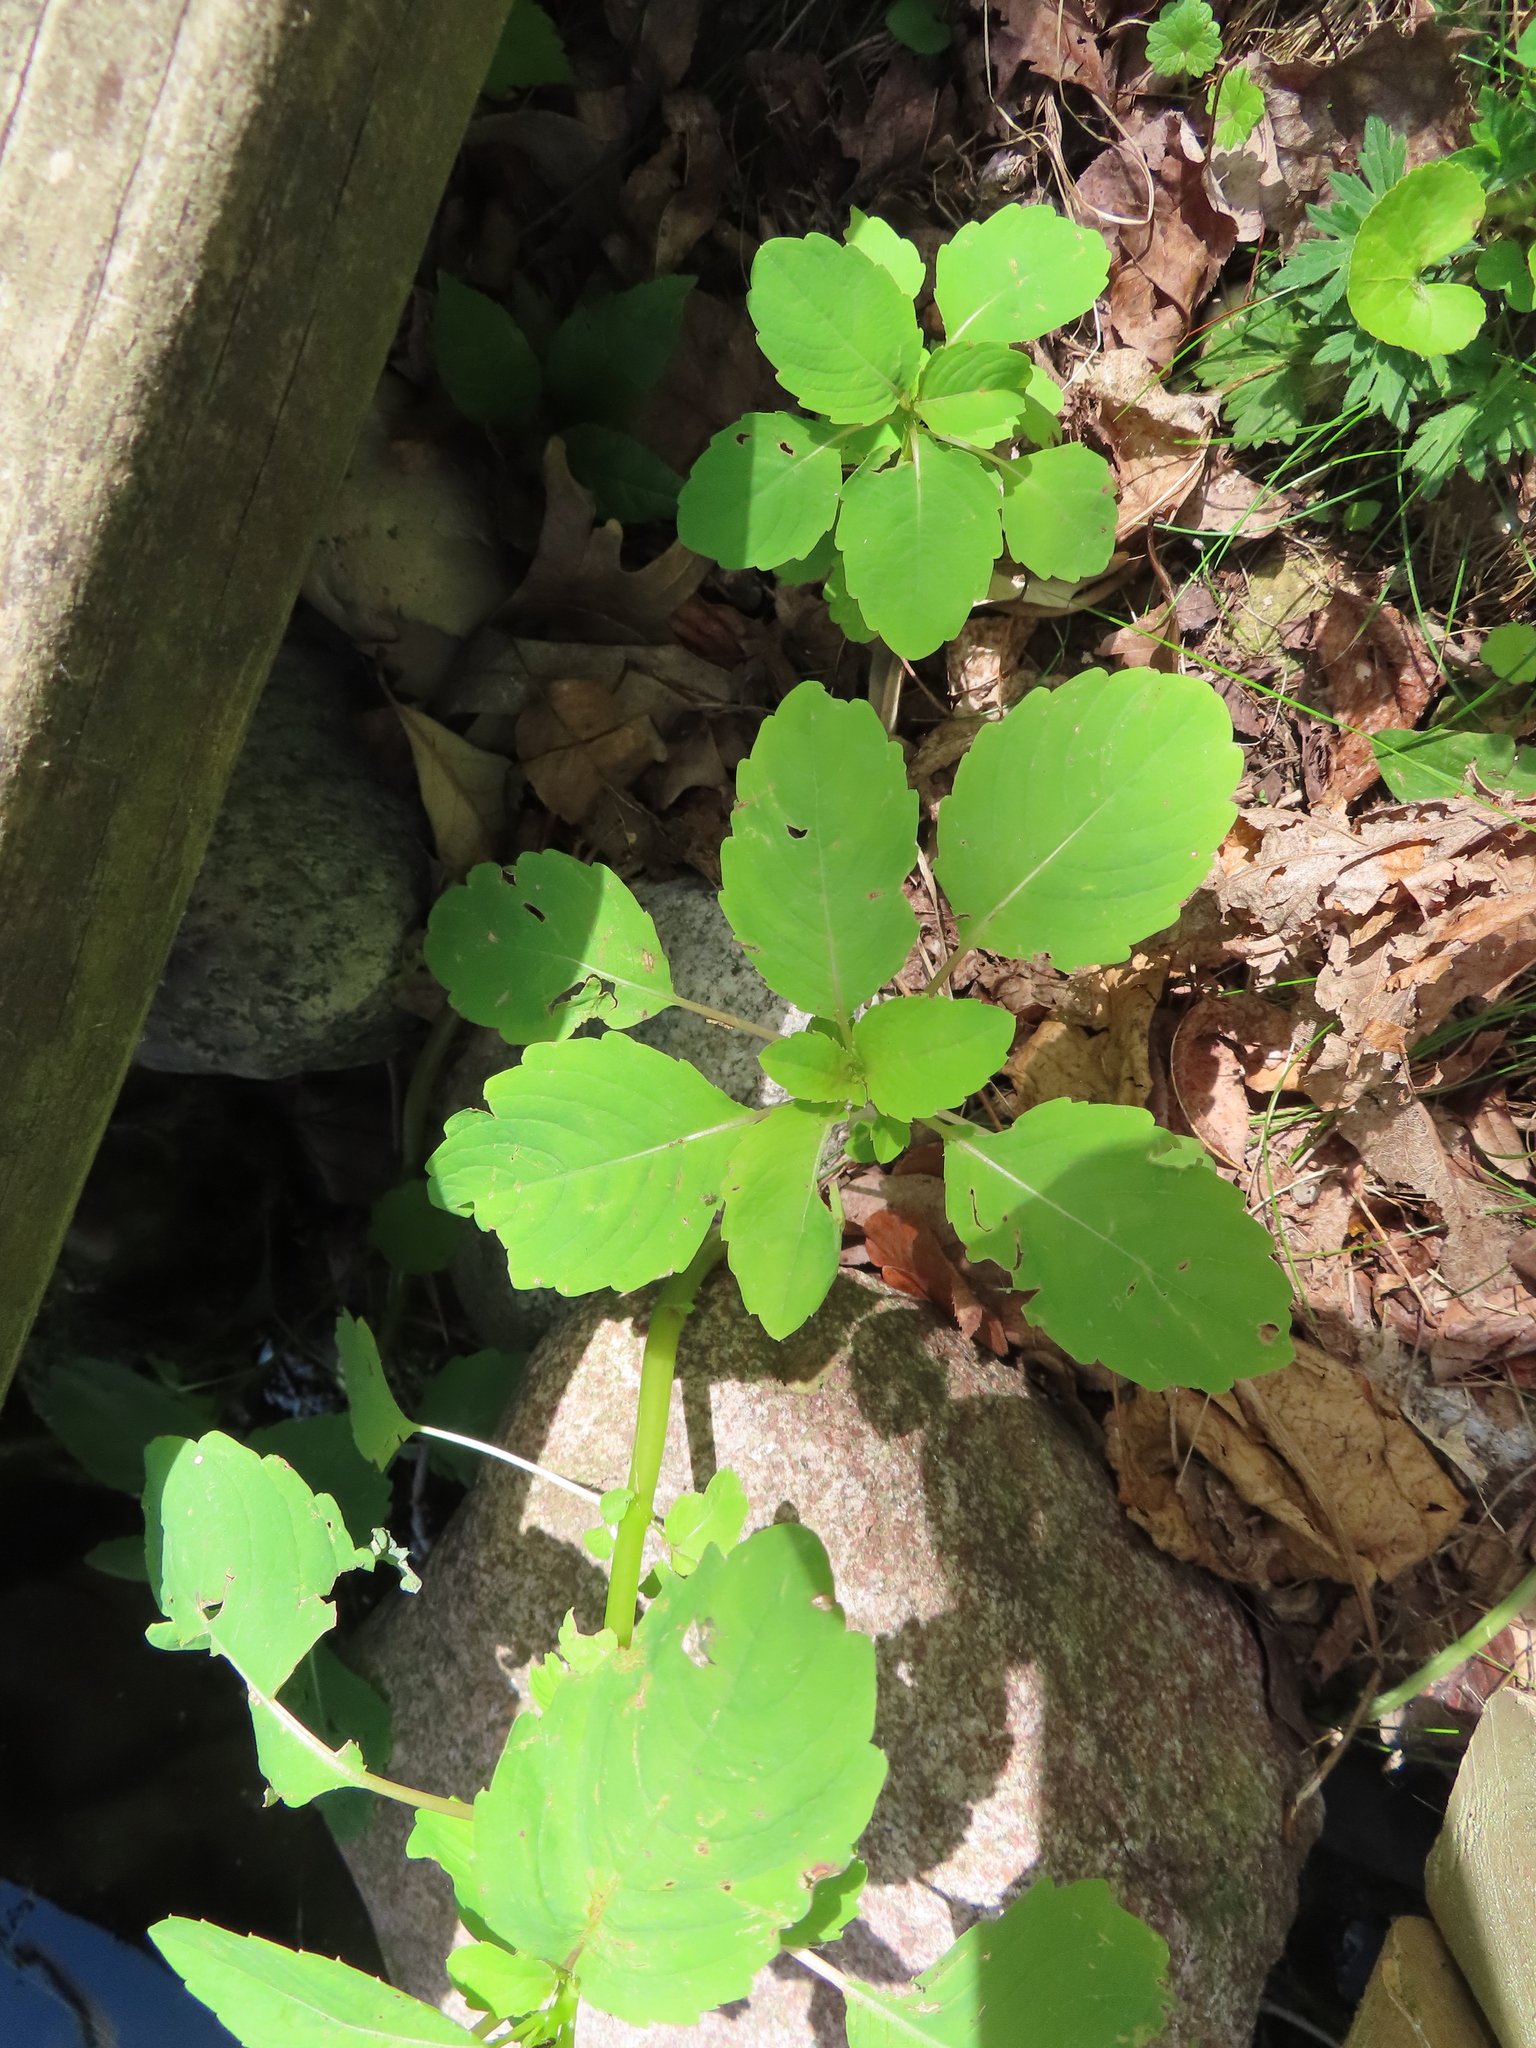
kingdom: Plantae
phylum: Tracheophyta
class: Magnoliopsida
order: Ericales
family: Balsaminaceae
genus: Impatiens
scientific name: Impatiens capensis
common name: Orange balsam
